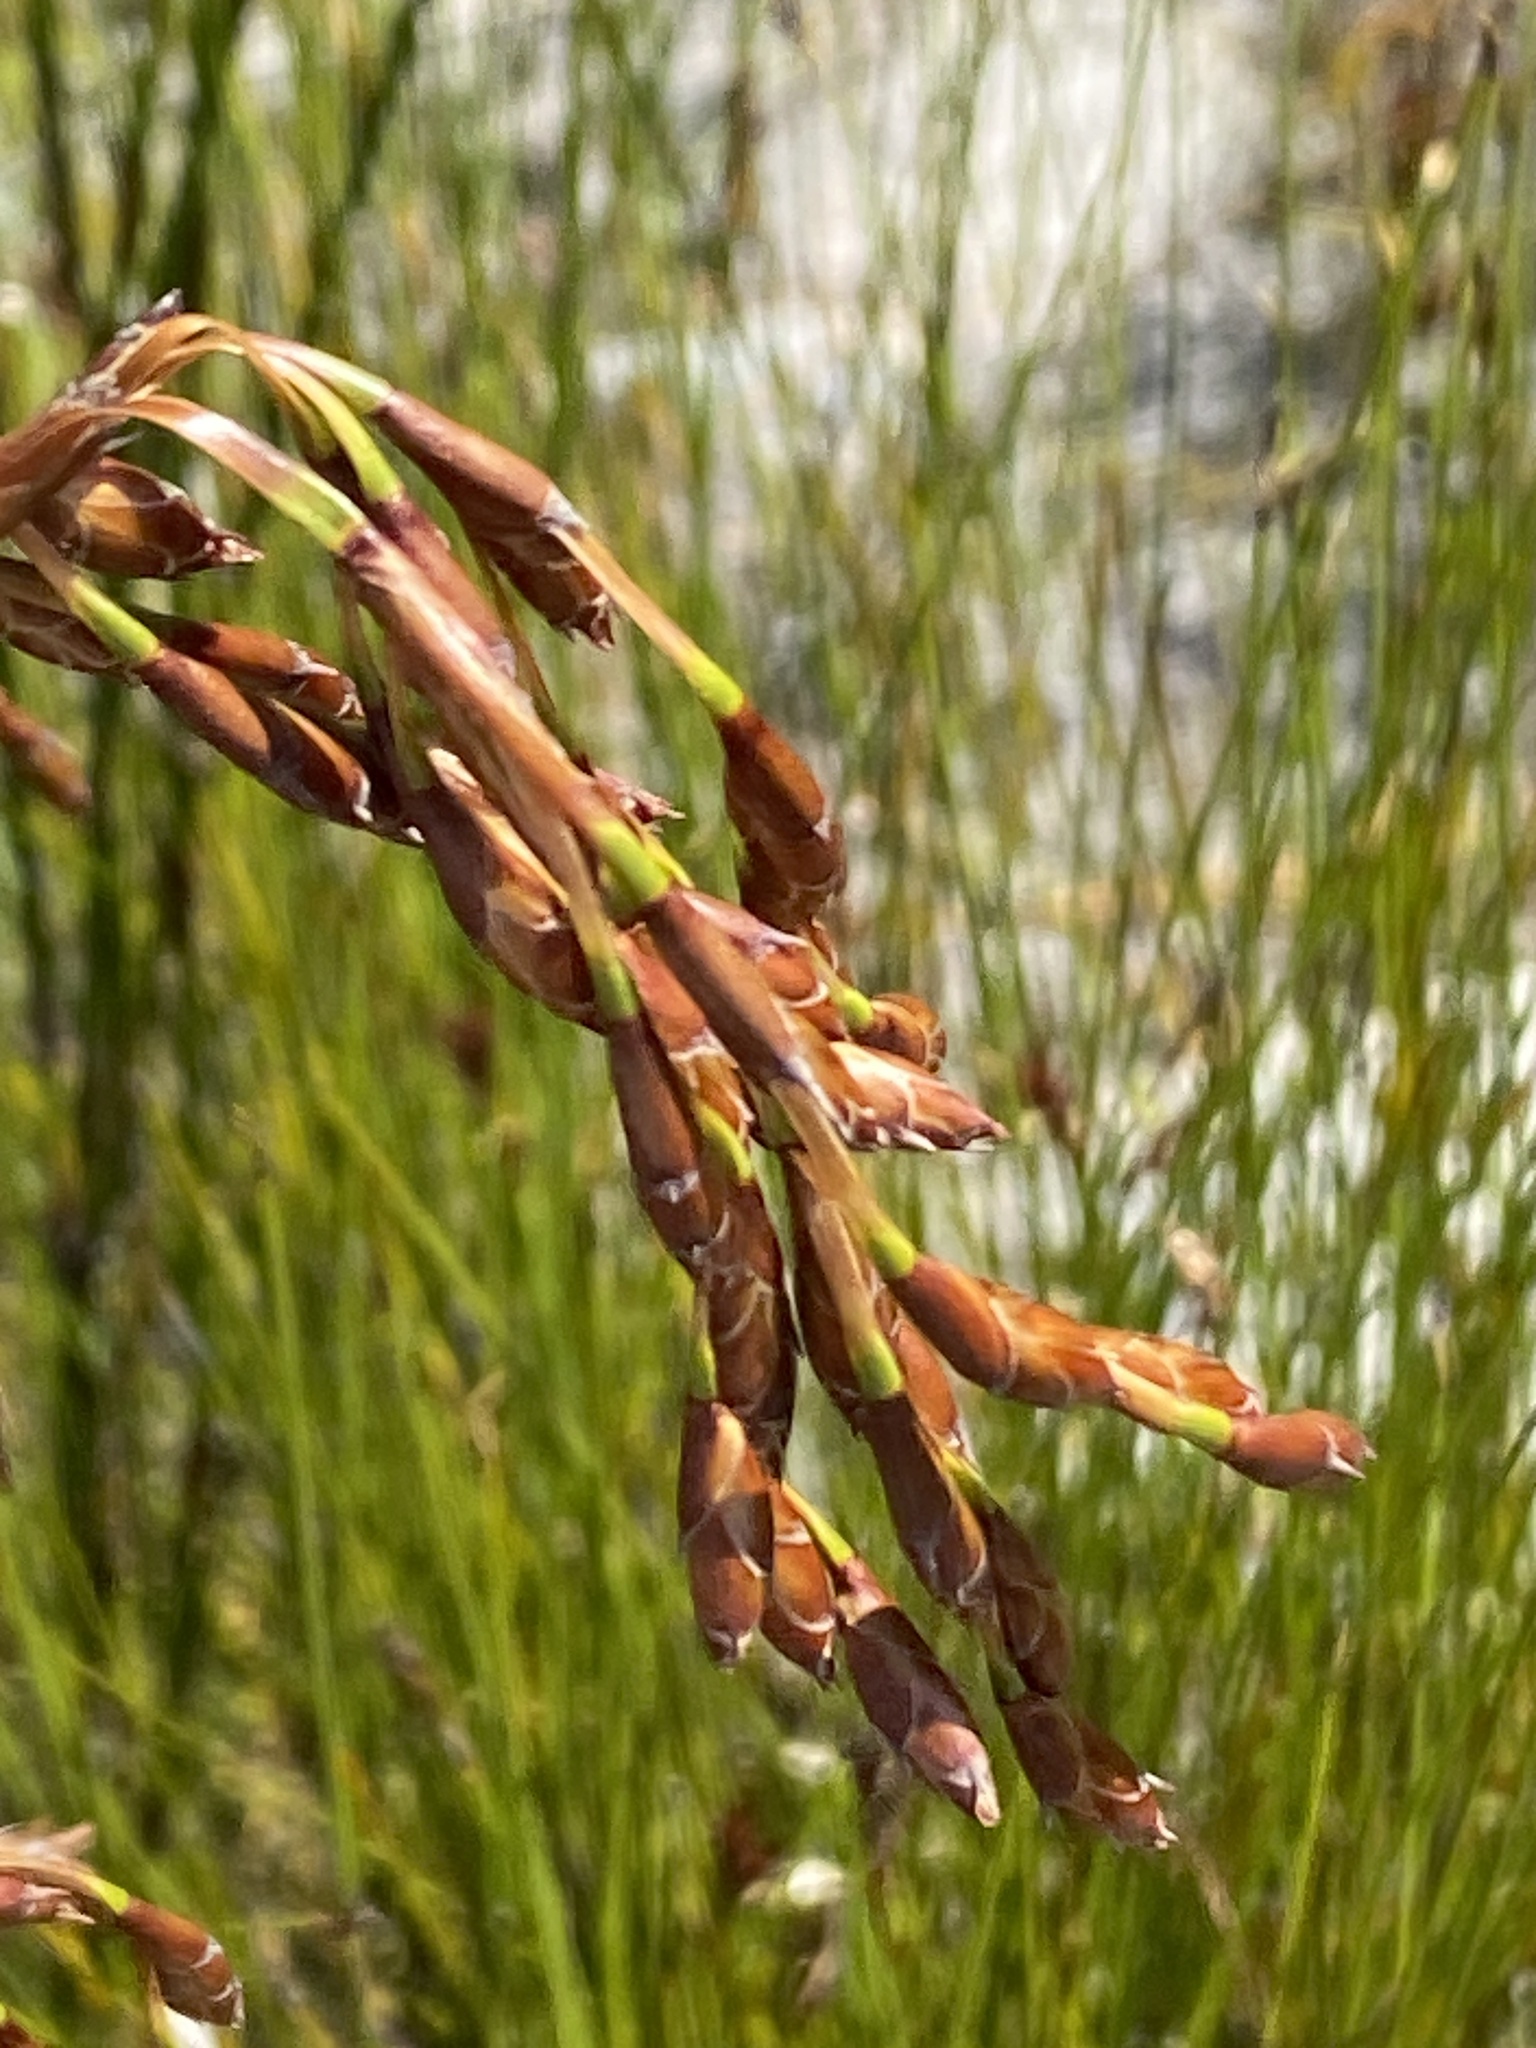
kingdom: Plantae
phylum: Tracheophyta
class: Liliopsida
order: Poales
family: Restionaceae
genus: Restio
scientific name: Restio egregius
